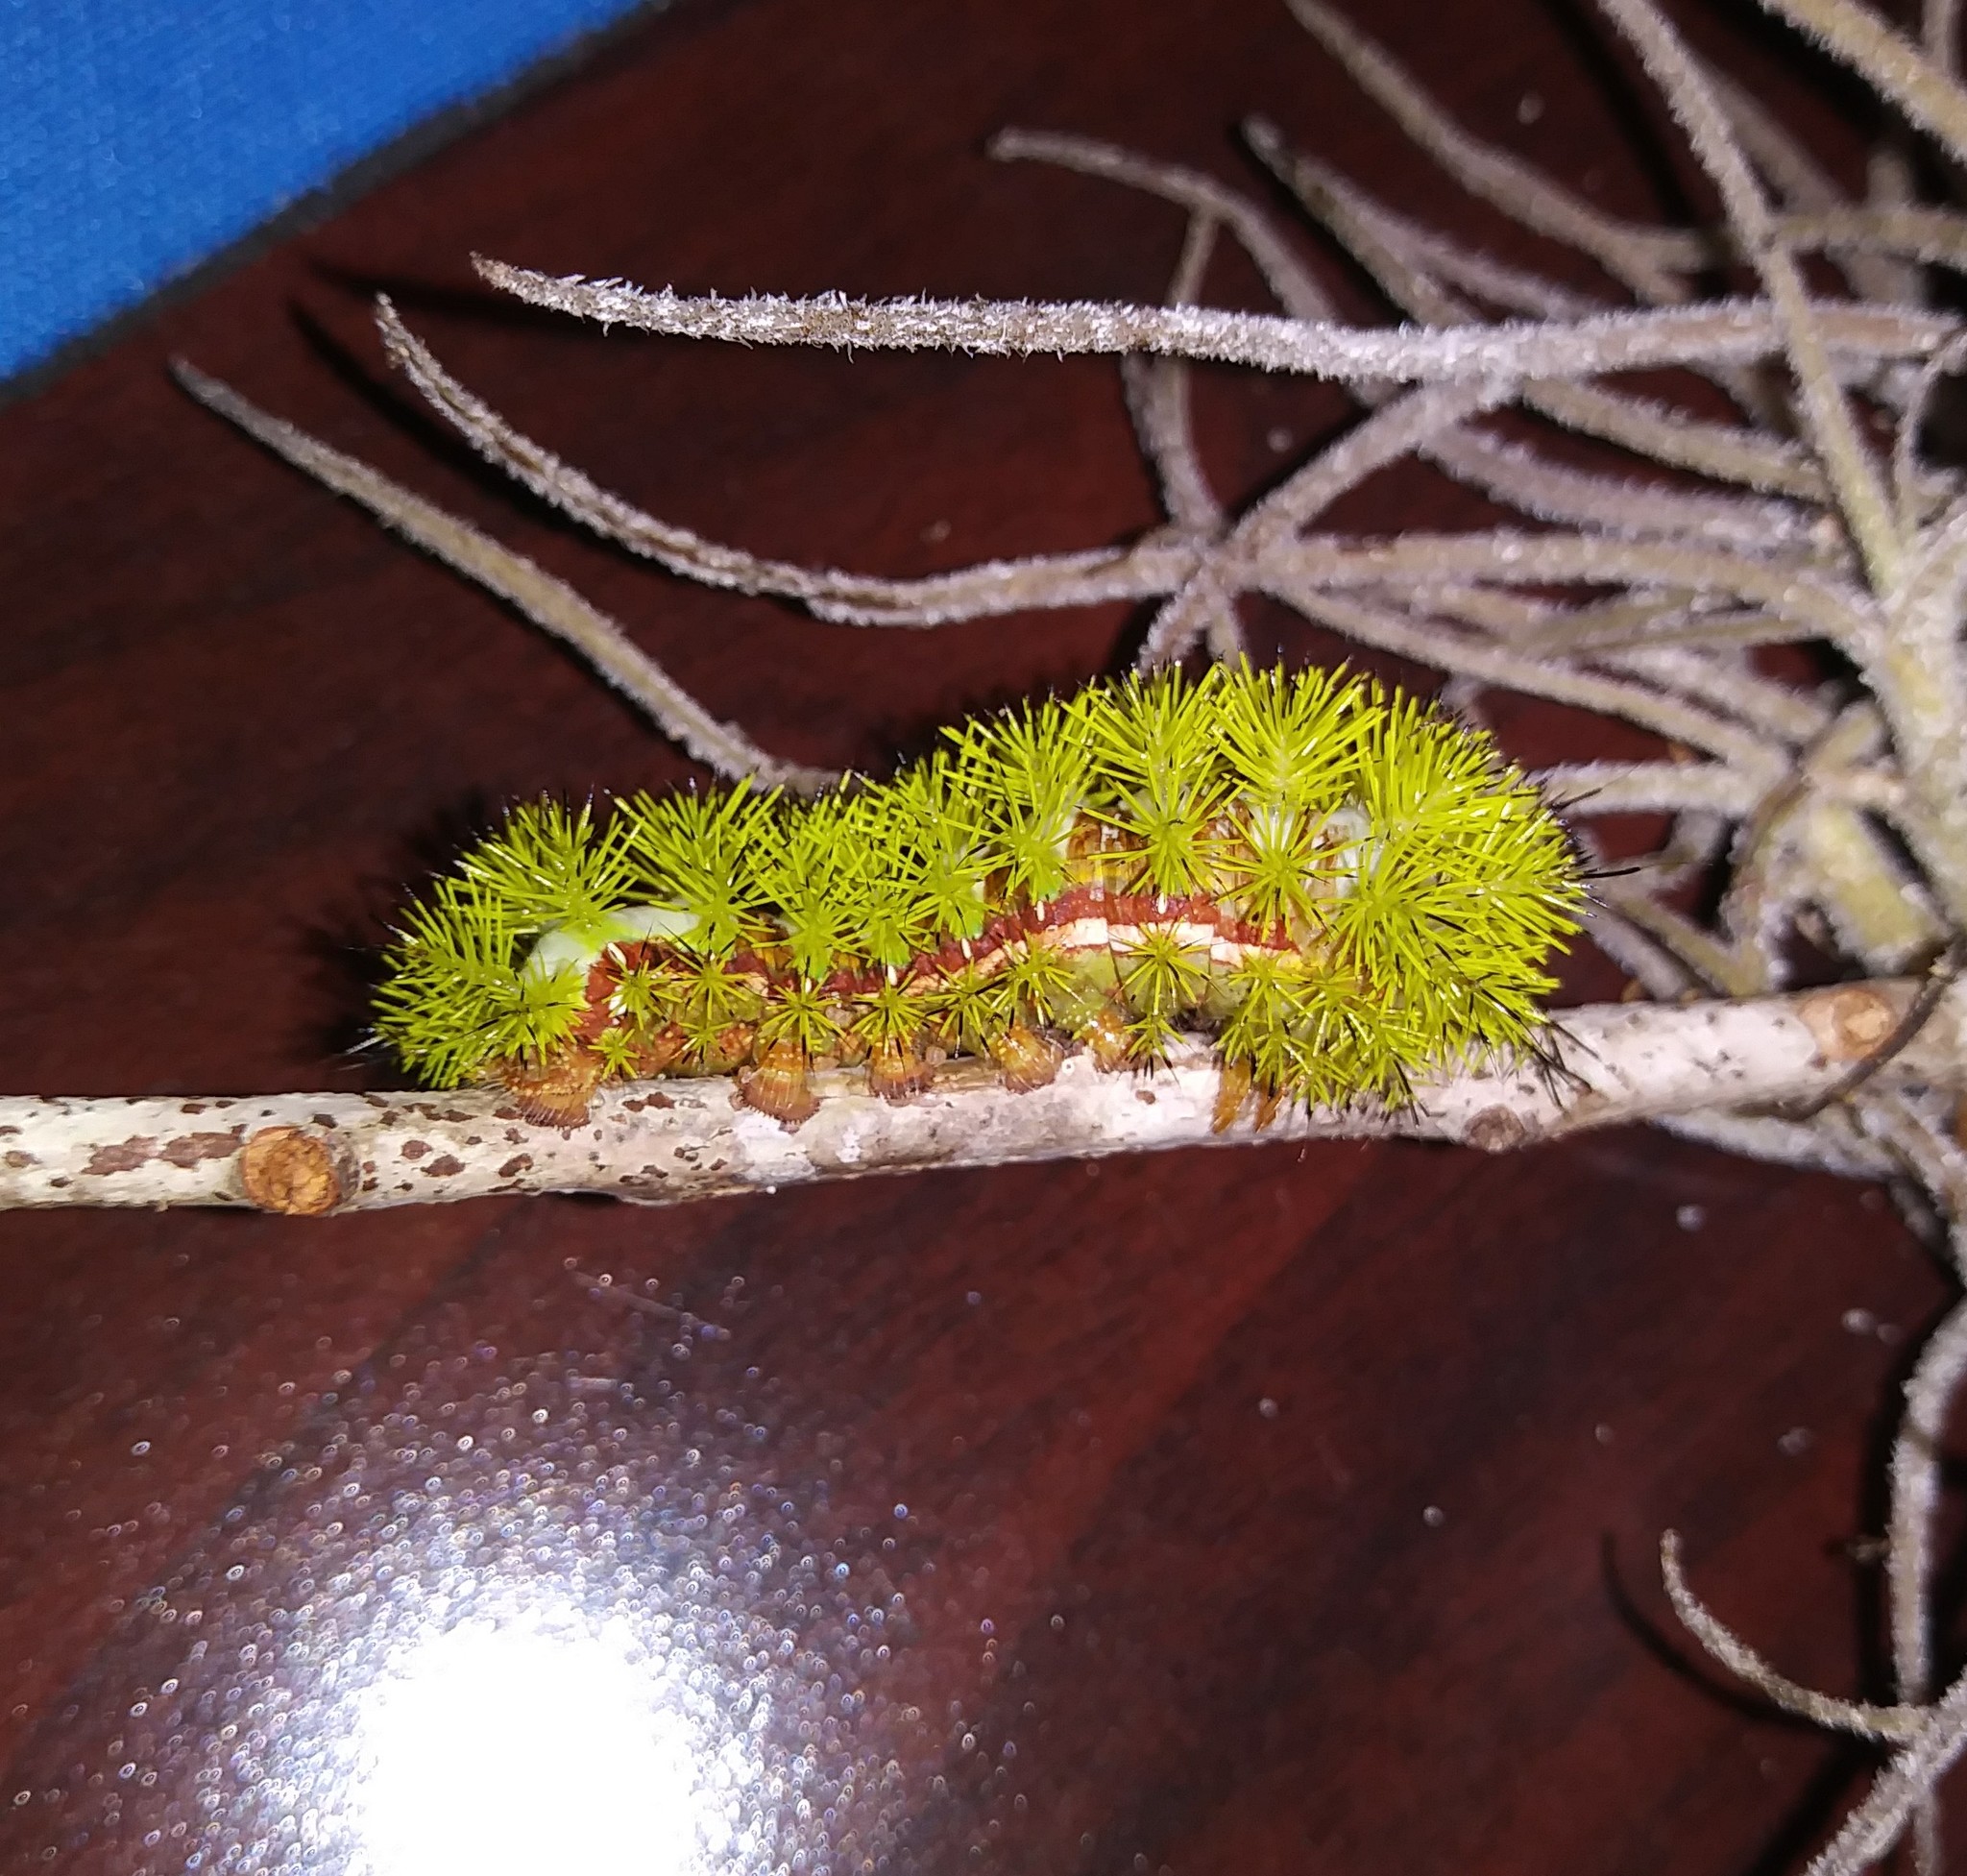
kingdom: Animalia
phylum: Arthropoda
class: Insecta
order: Lepidoptera
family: Saturniidae
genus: Automeris
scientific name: Automeris io
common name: Io moth
